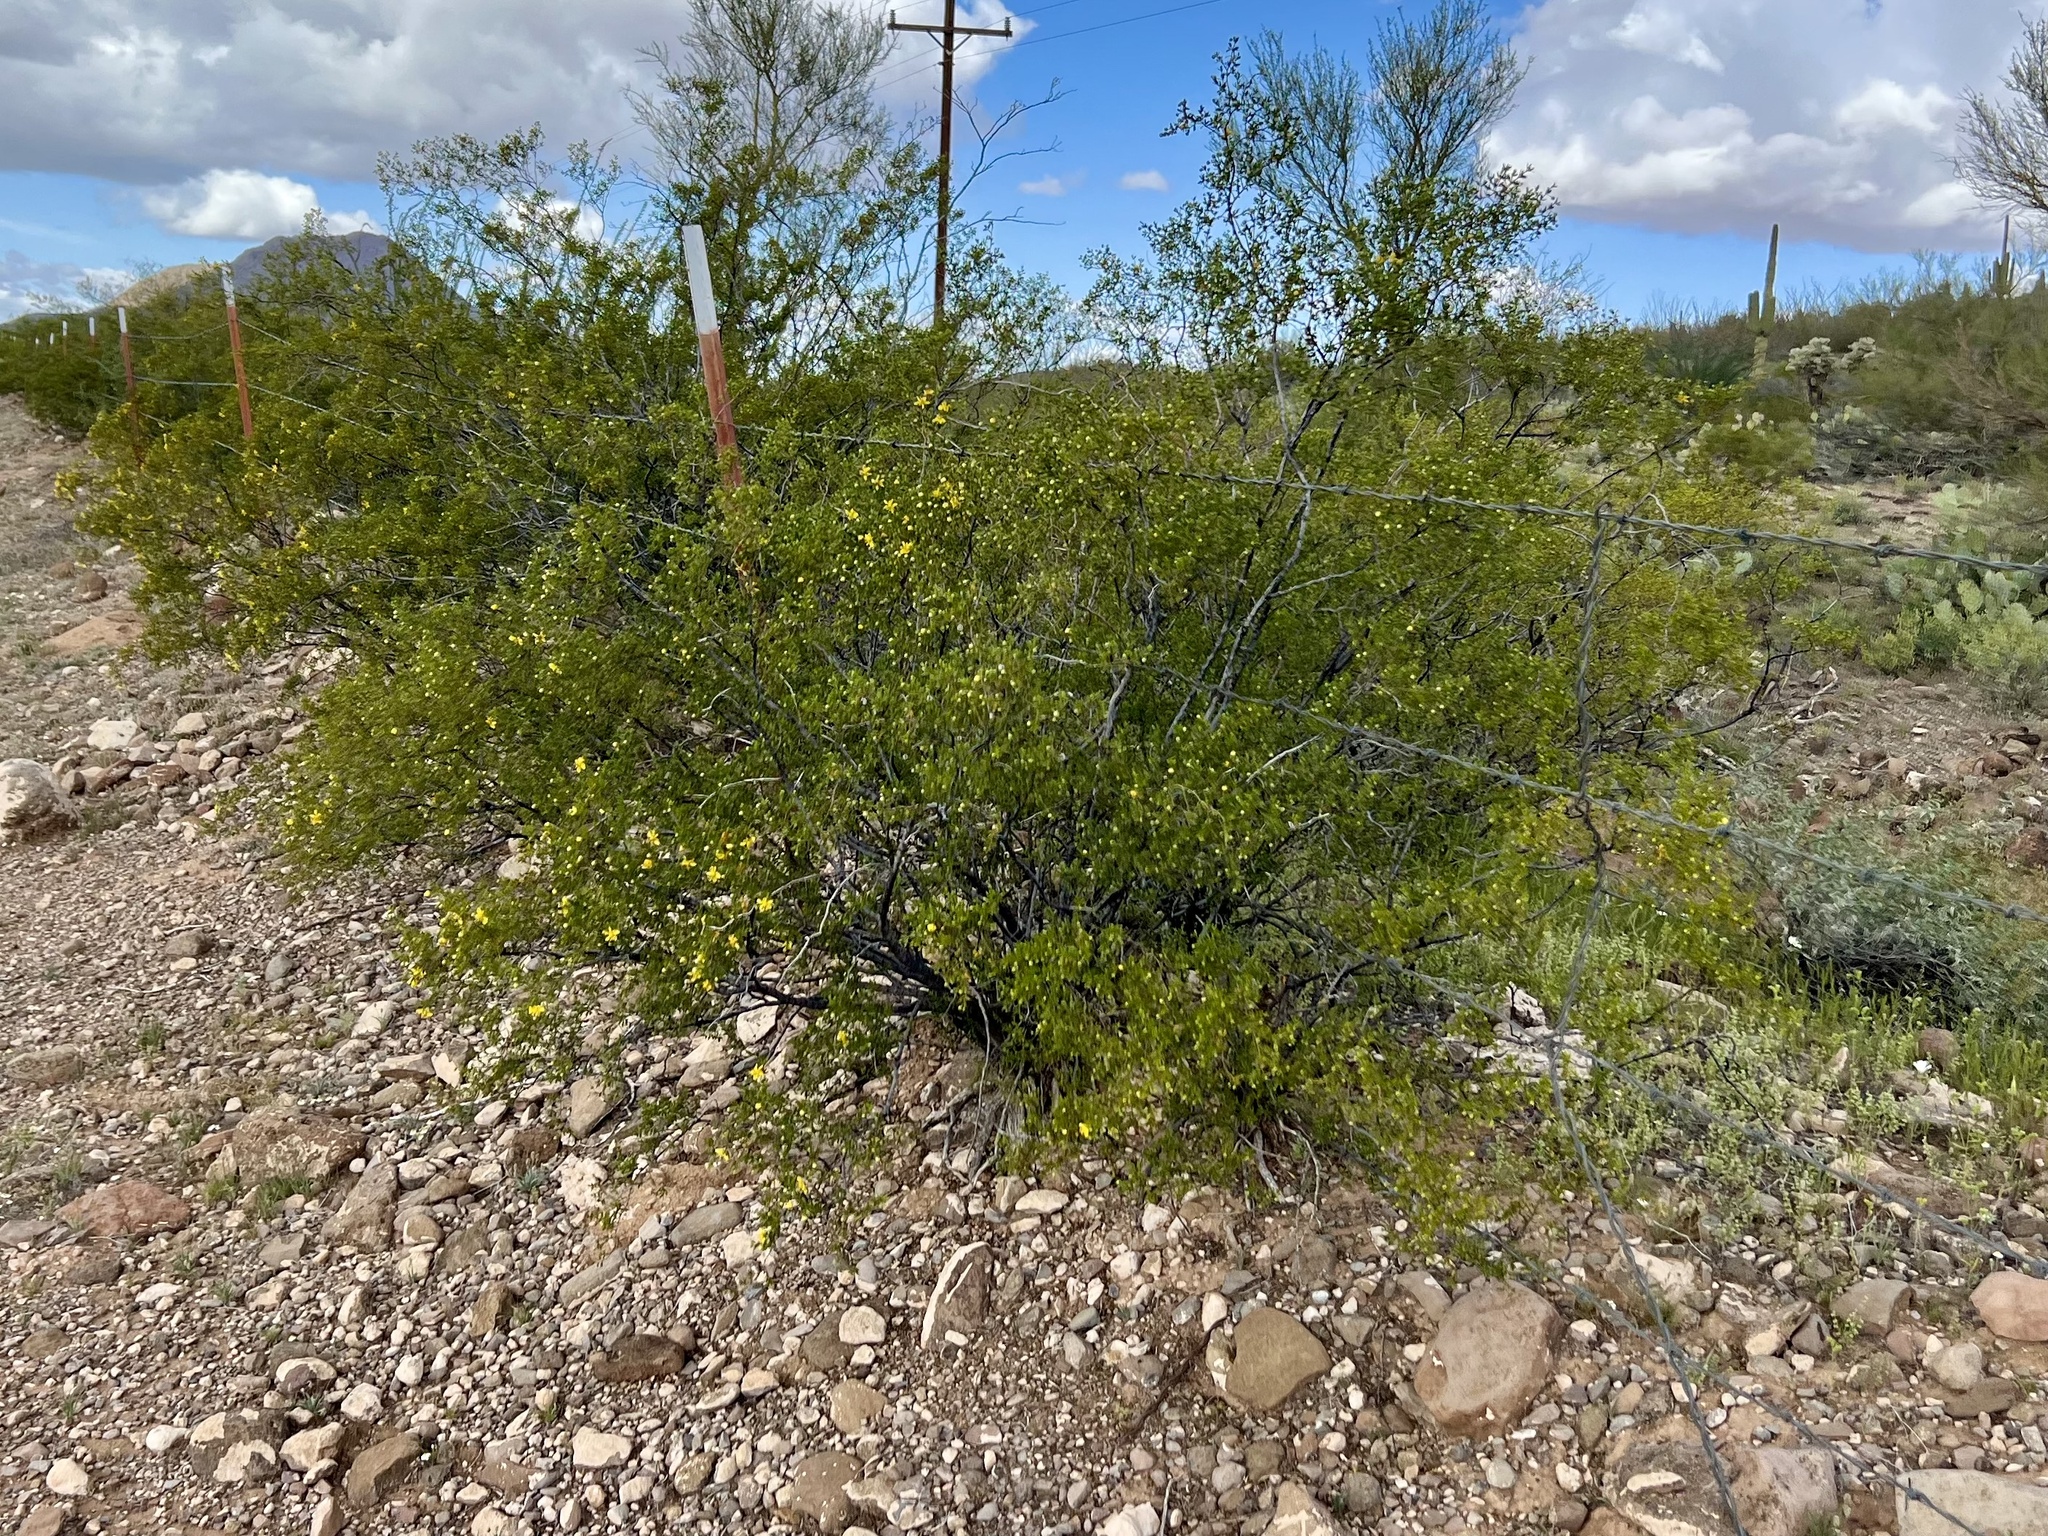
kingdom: Plantae
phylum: Tracheophyta
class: Magnoliopsida
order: Zygophyllales
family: Zygophyllaceae
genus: Larrea
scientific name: Larrea tridentata
